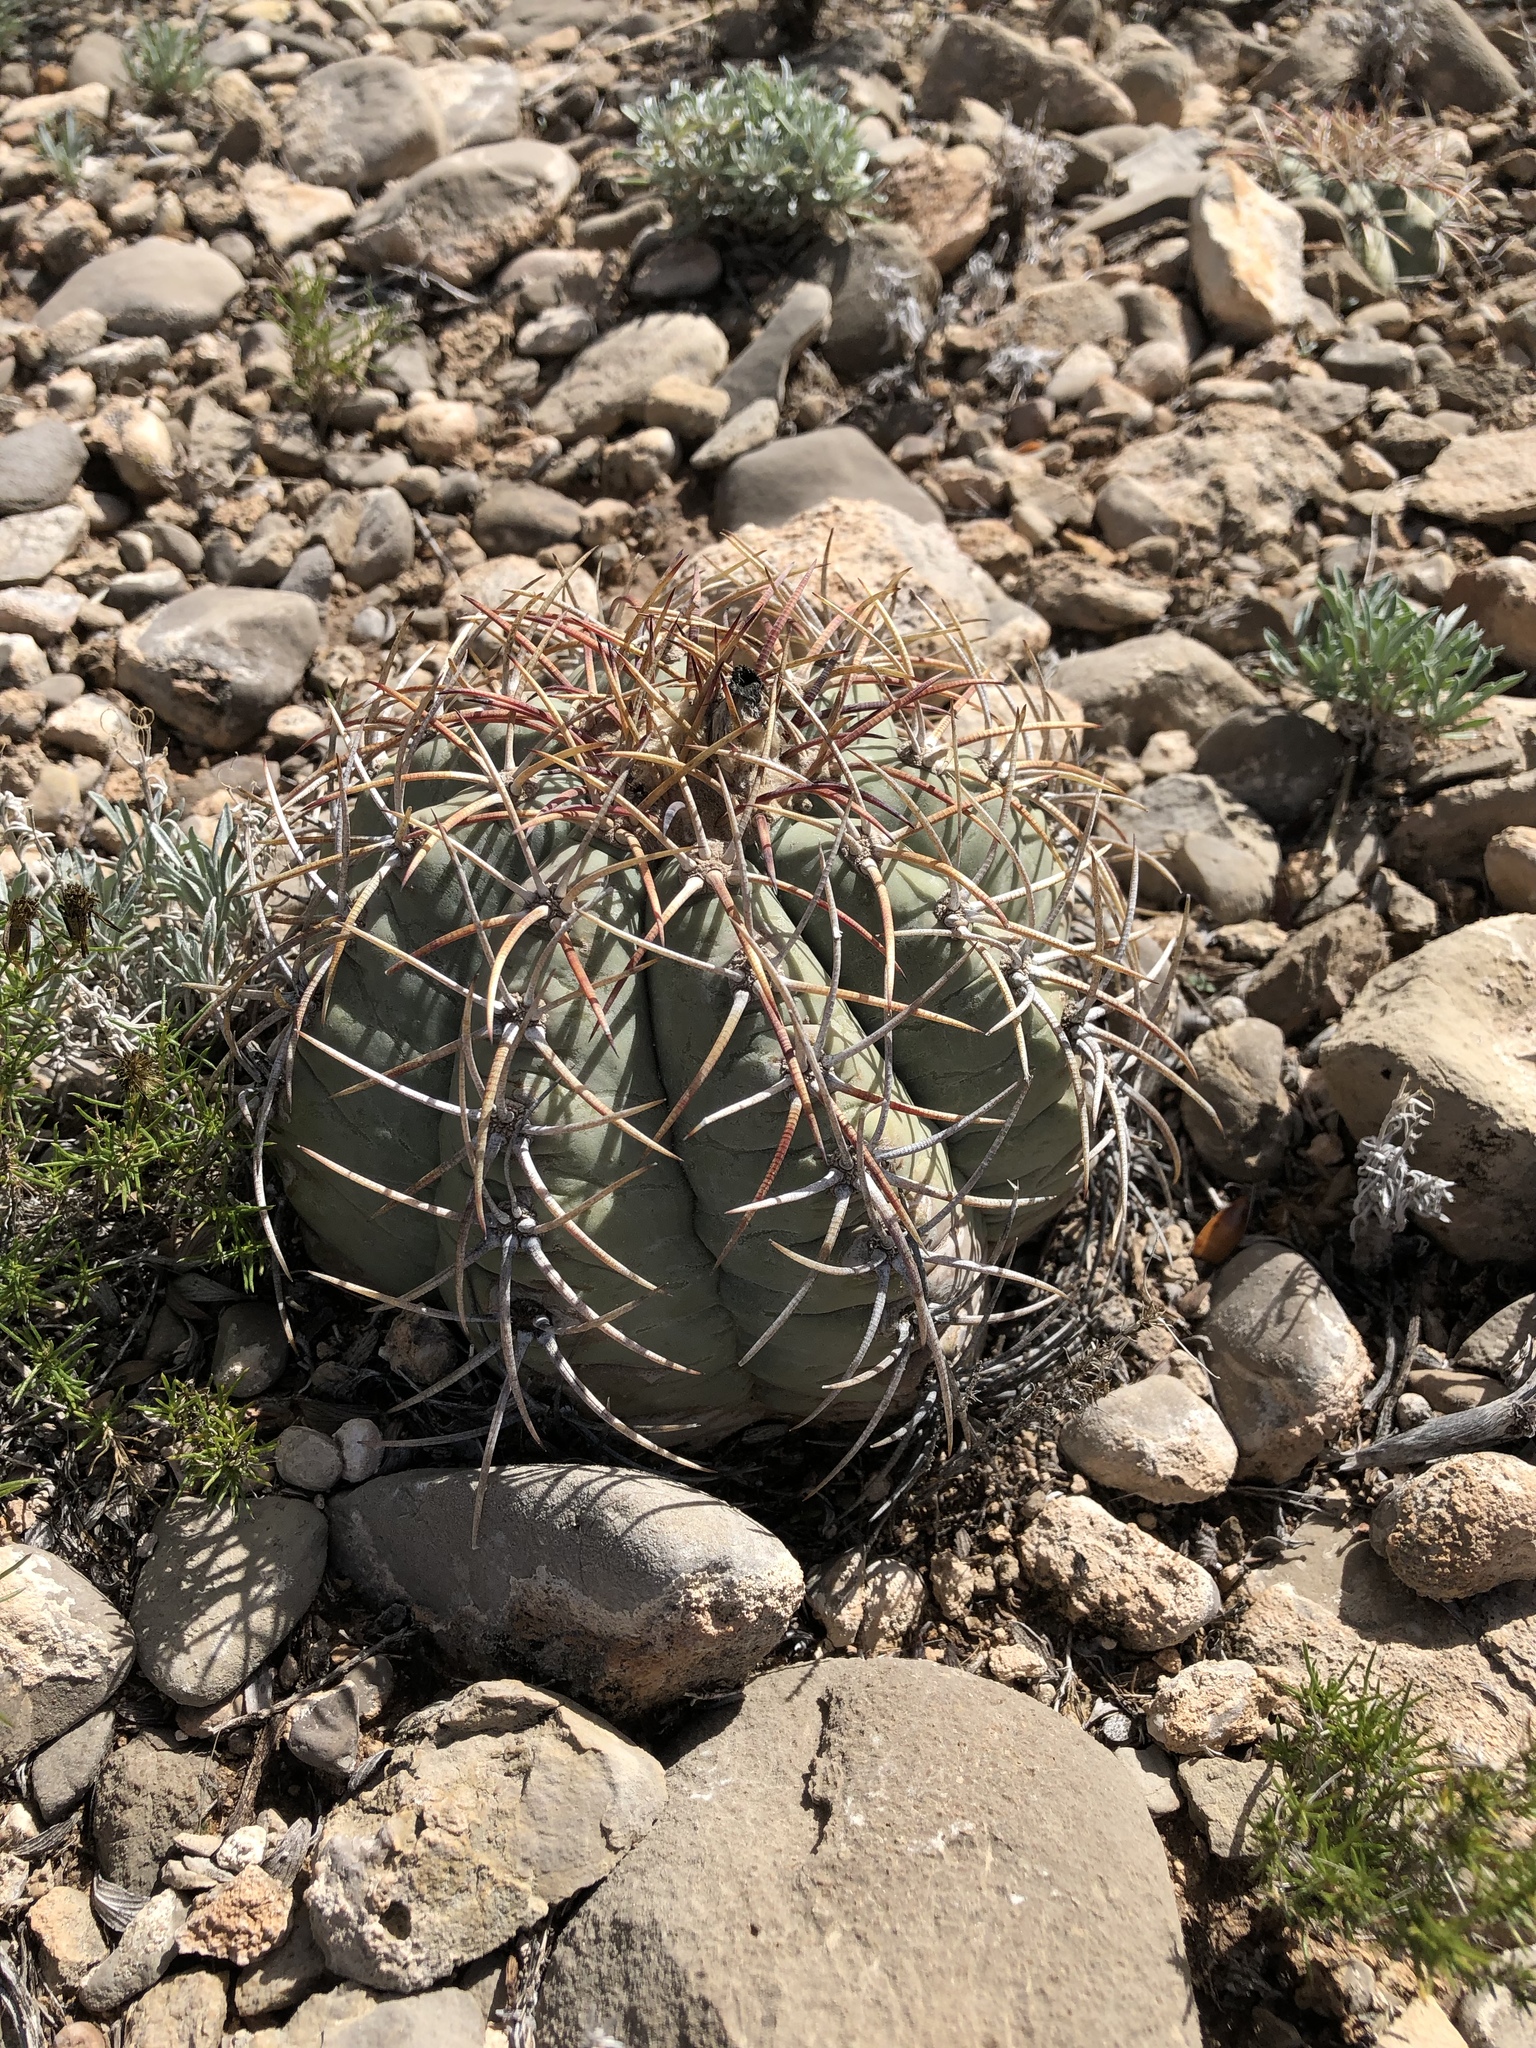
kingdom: Plantae
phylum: Tracheophyta
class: Magnoliopsida
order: Caryophyllales
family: Cactaceae
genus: Echinocactus
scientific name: Echinocactus horizonthalonius
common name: Devilshead
